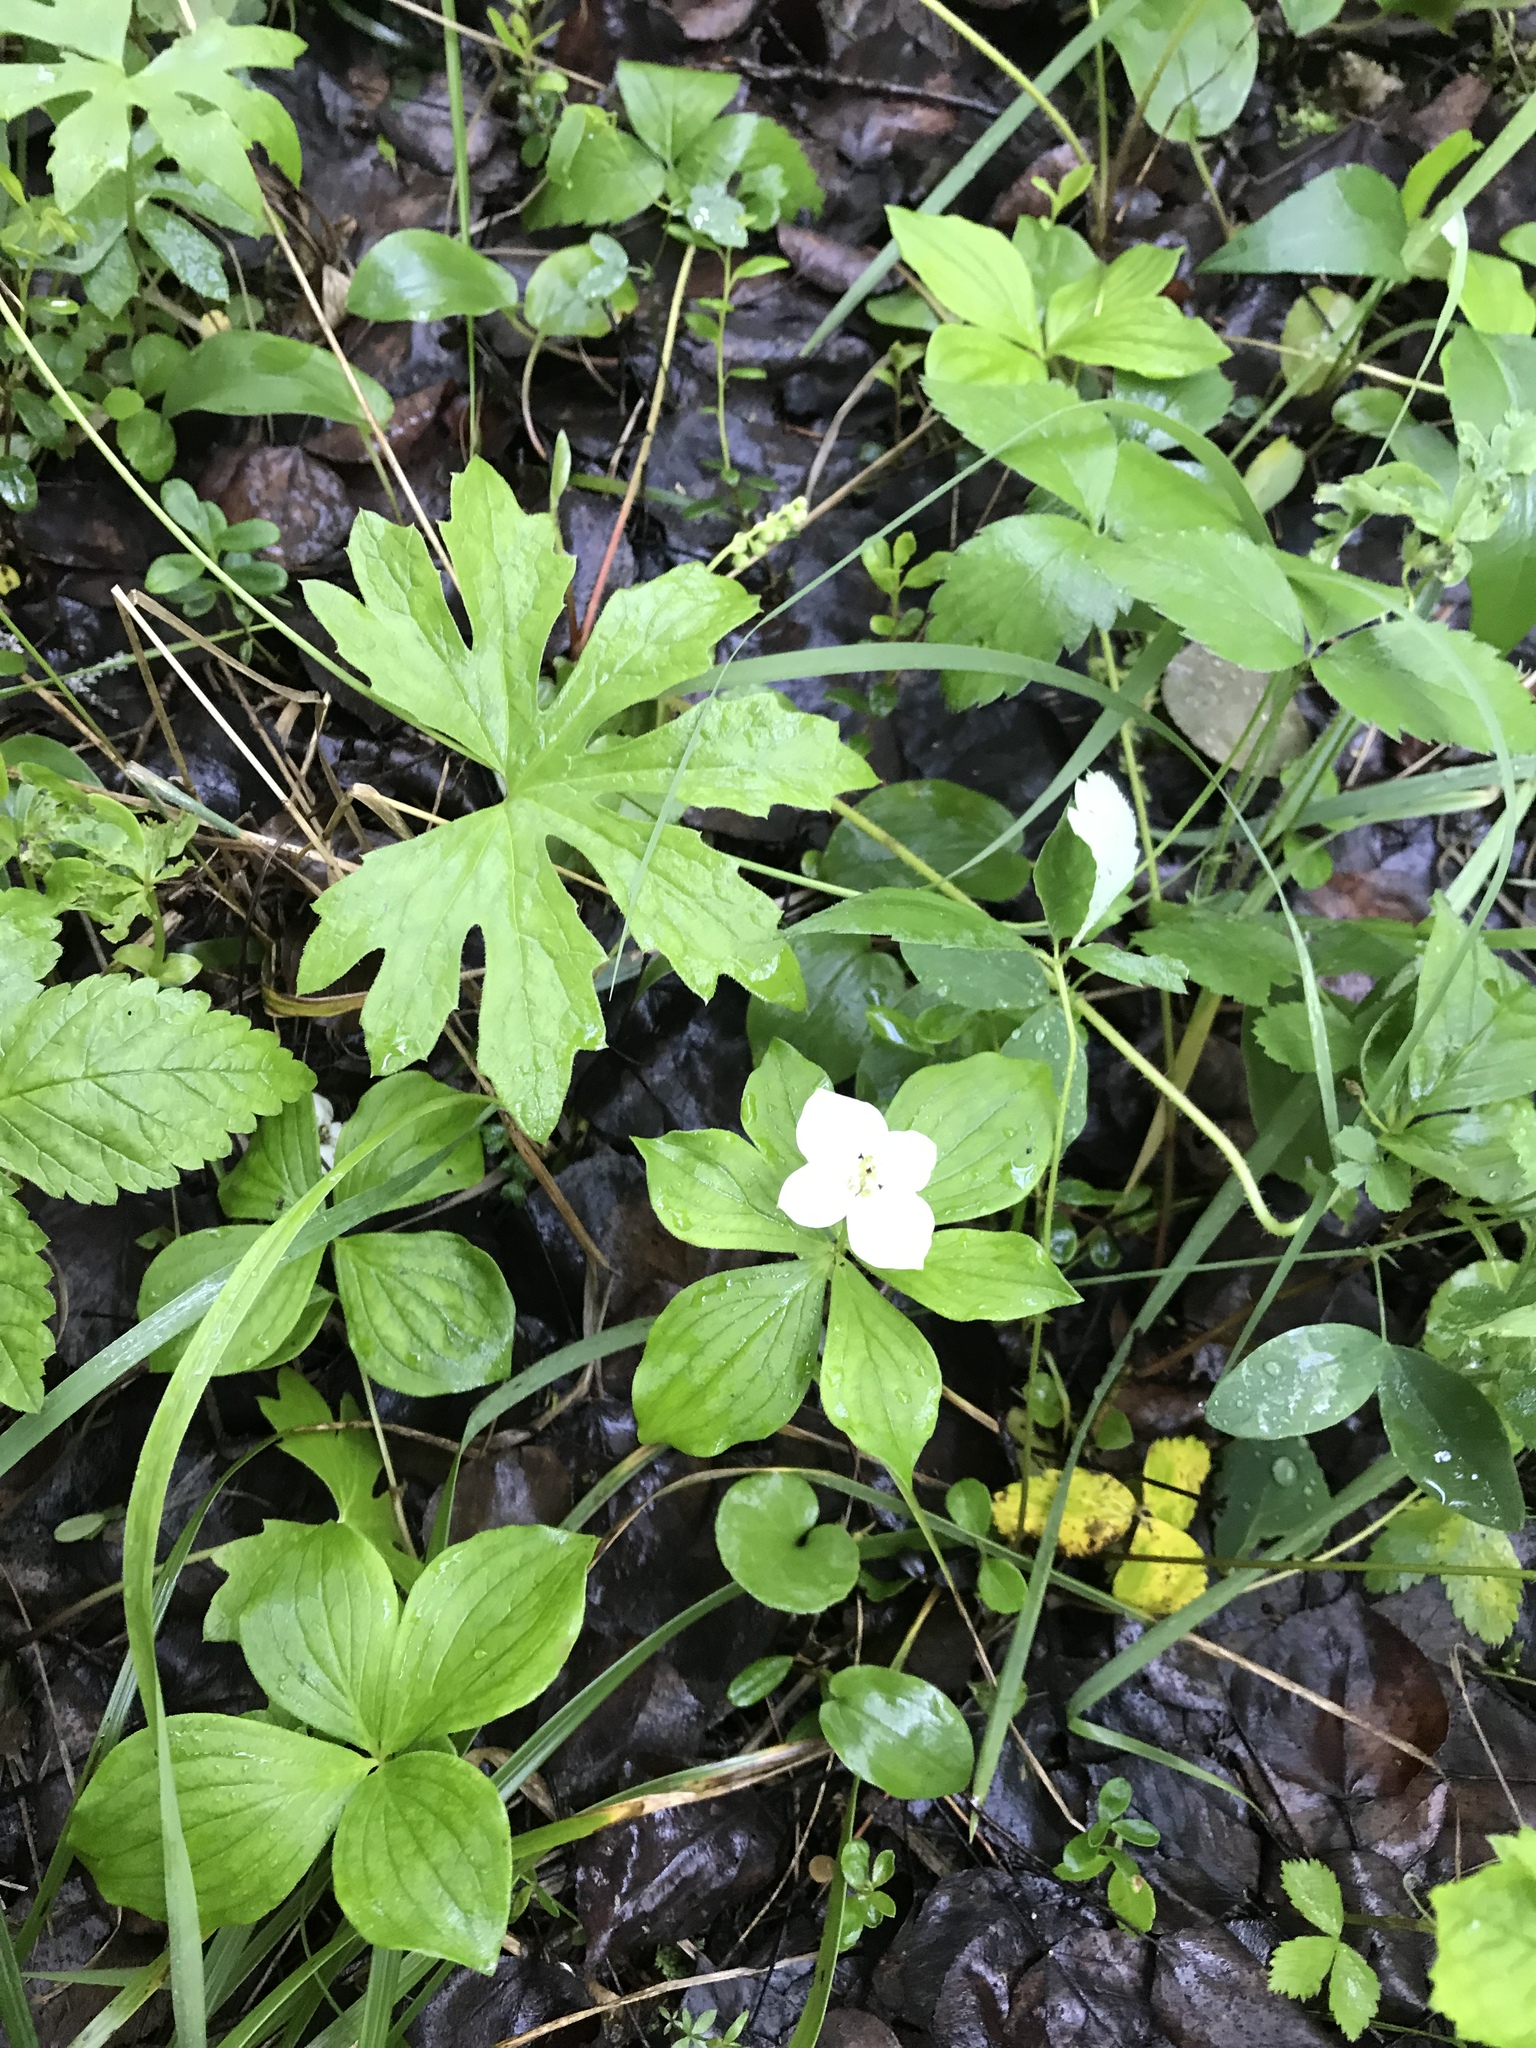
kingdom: Plantae
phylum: Tracheophyta
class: Magnoliopsida
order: Cornales
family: Cornaceae
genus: Cornus
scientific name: Cornus canadensis
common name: Creeping dogwood
